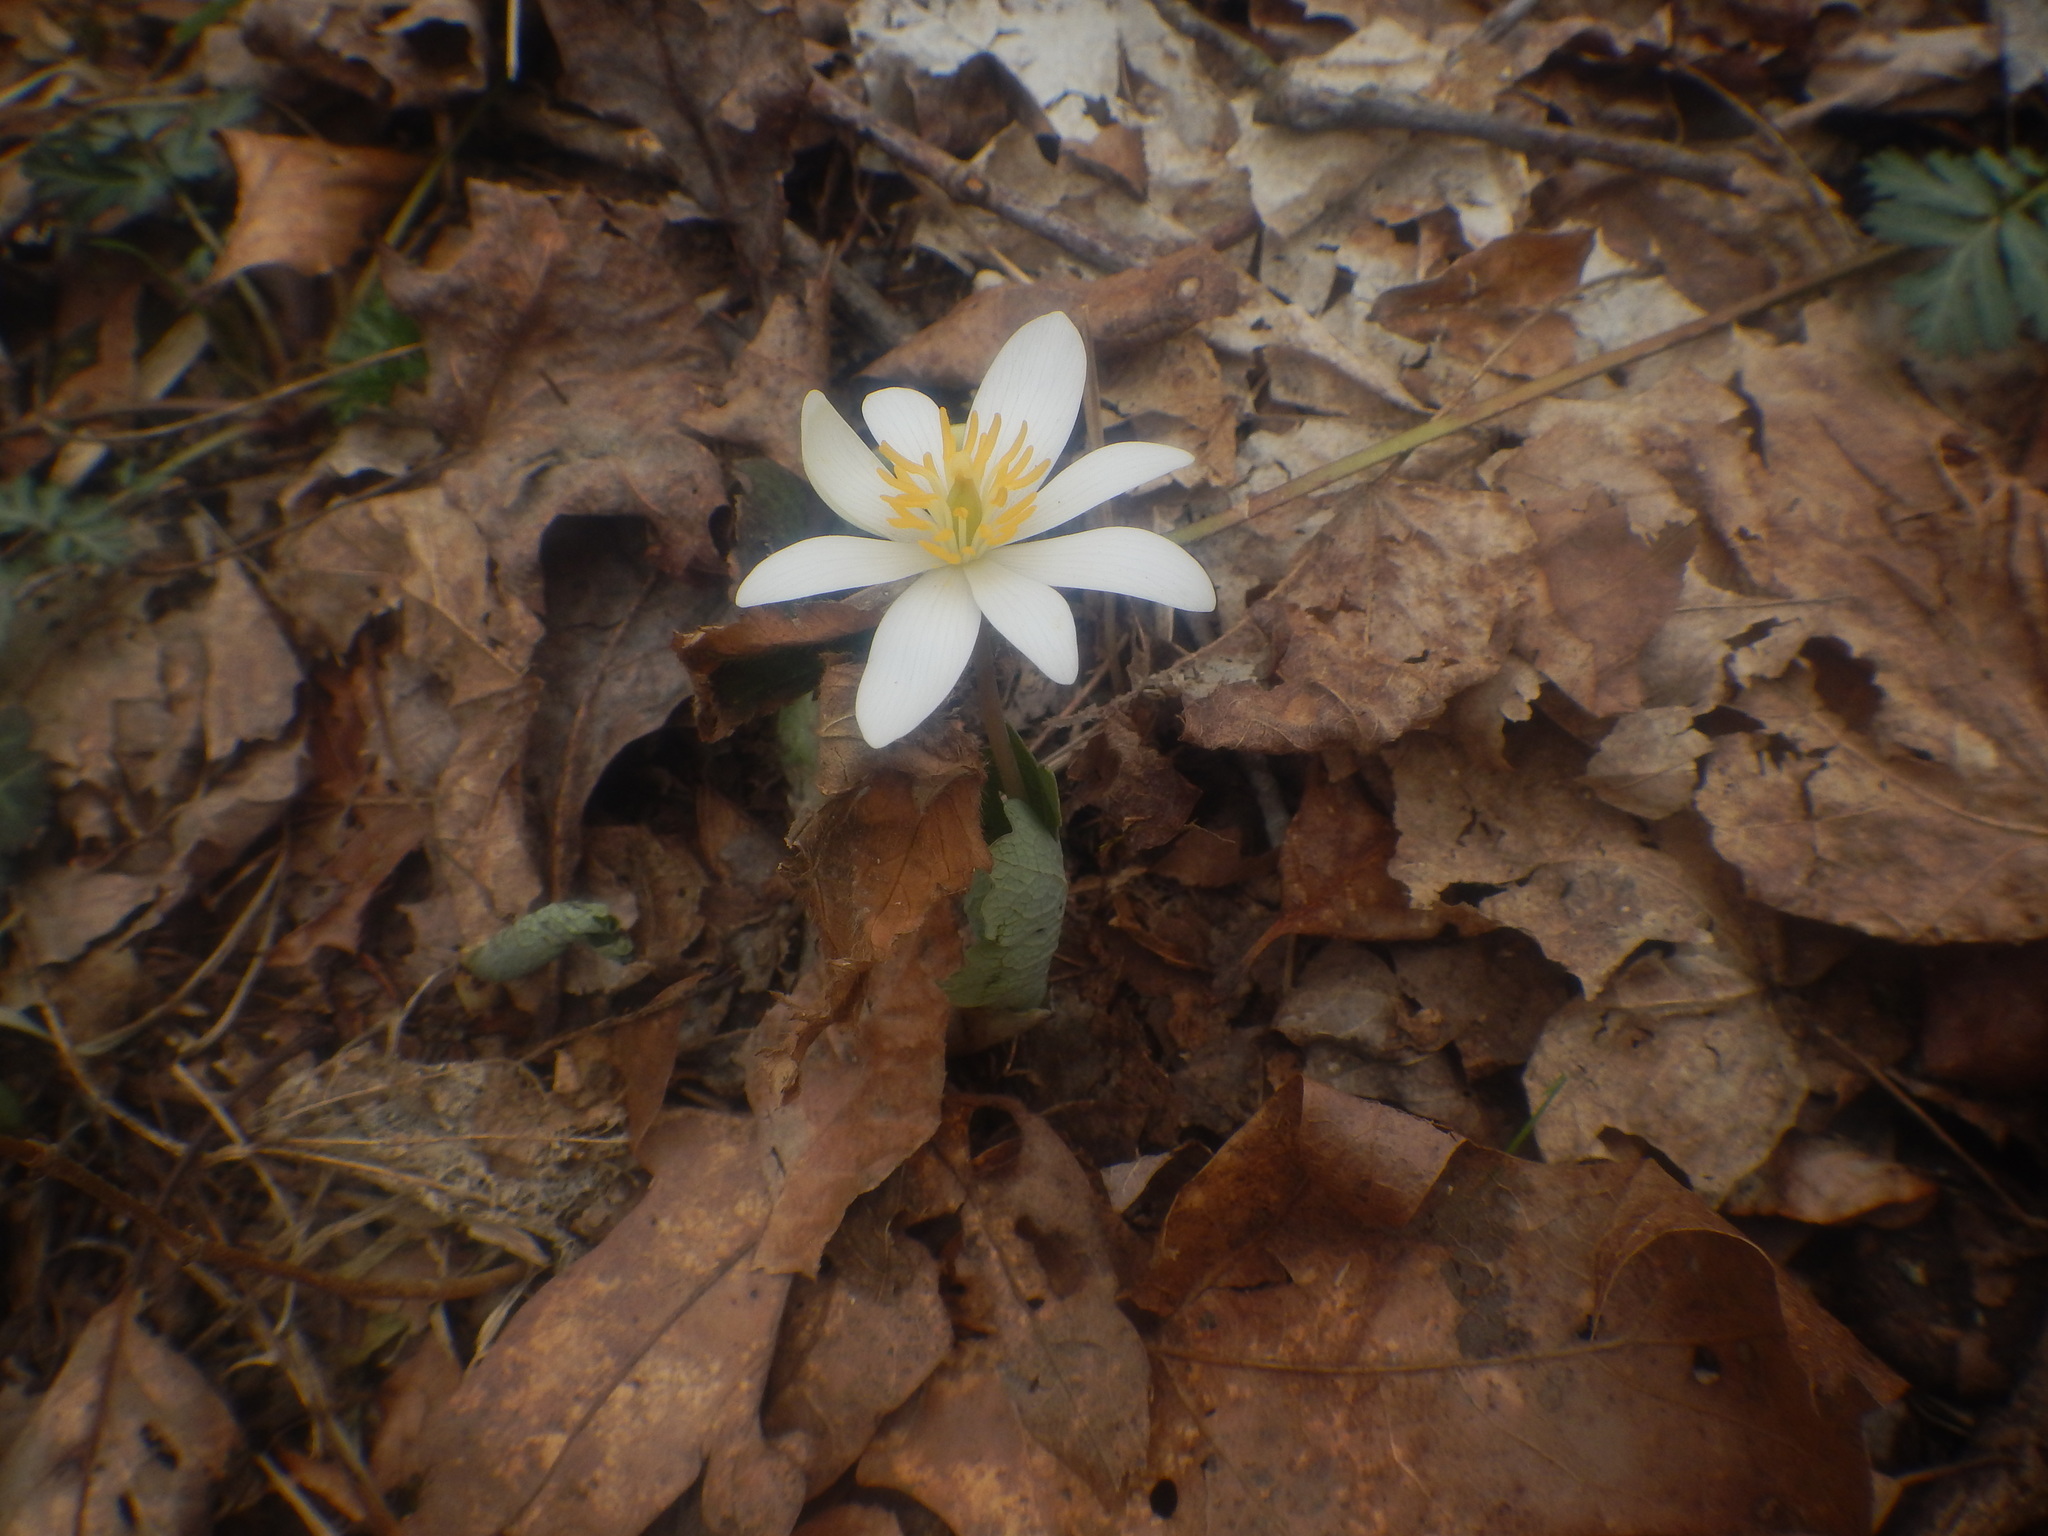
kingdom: Plantae
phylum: Tracheophyta
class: Magnoliopsida
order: Ranunculales
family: Papaveraceae
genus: Sanguinaria
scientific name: Sanguinaria canadensis
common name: Bloodroot
